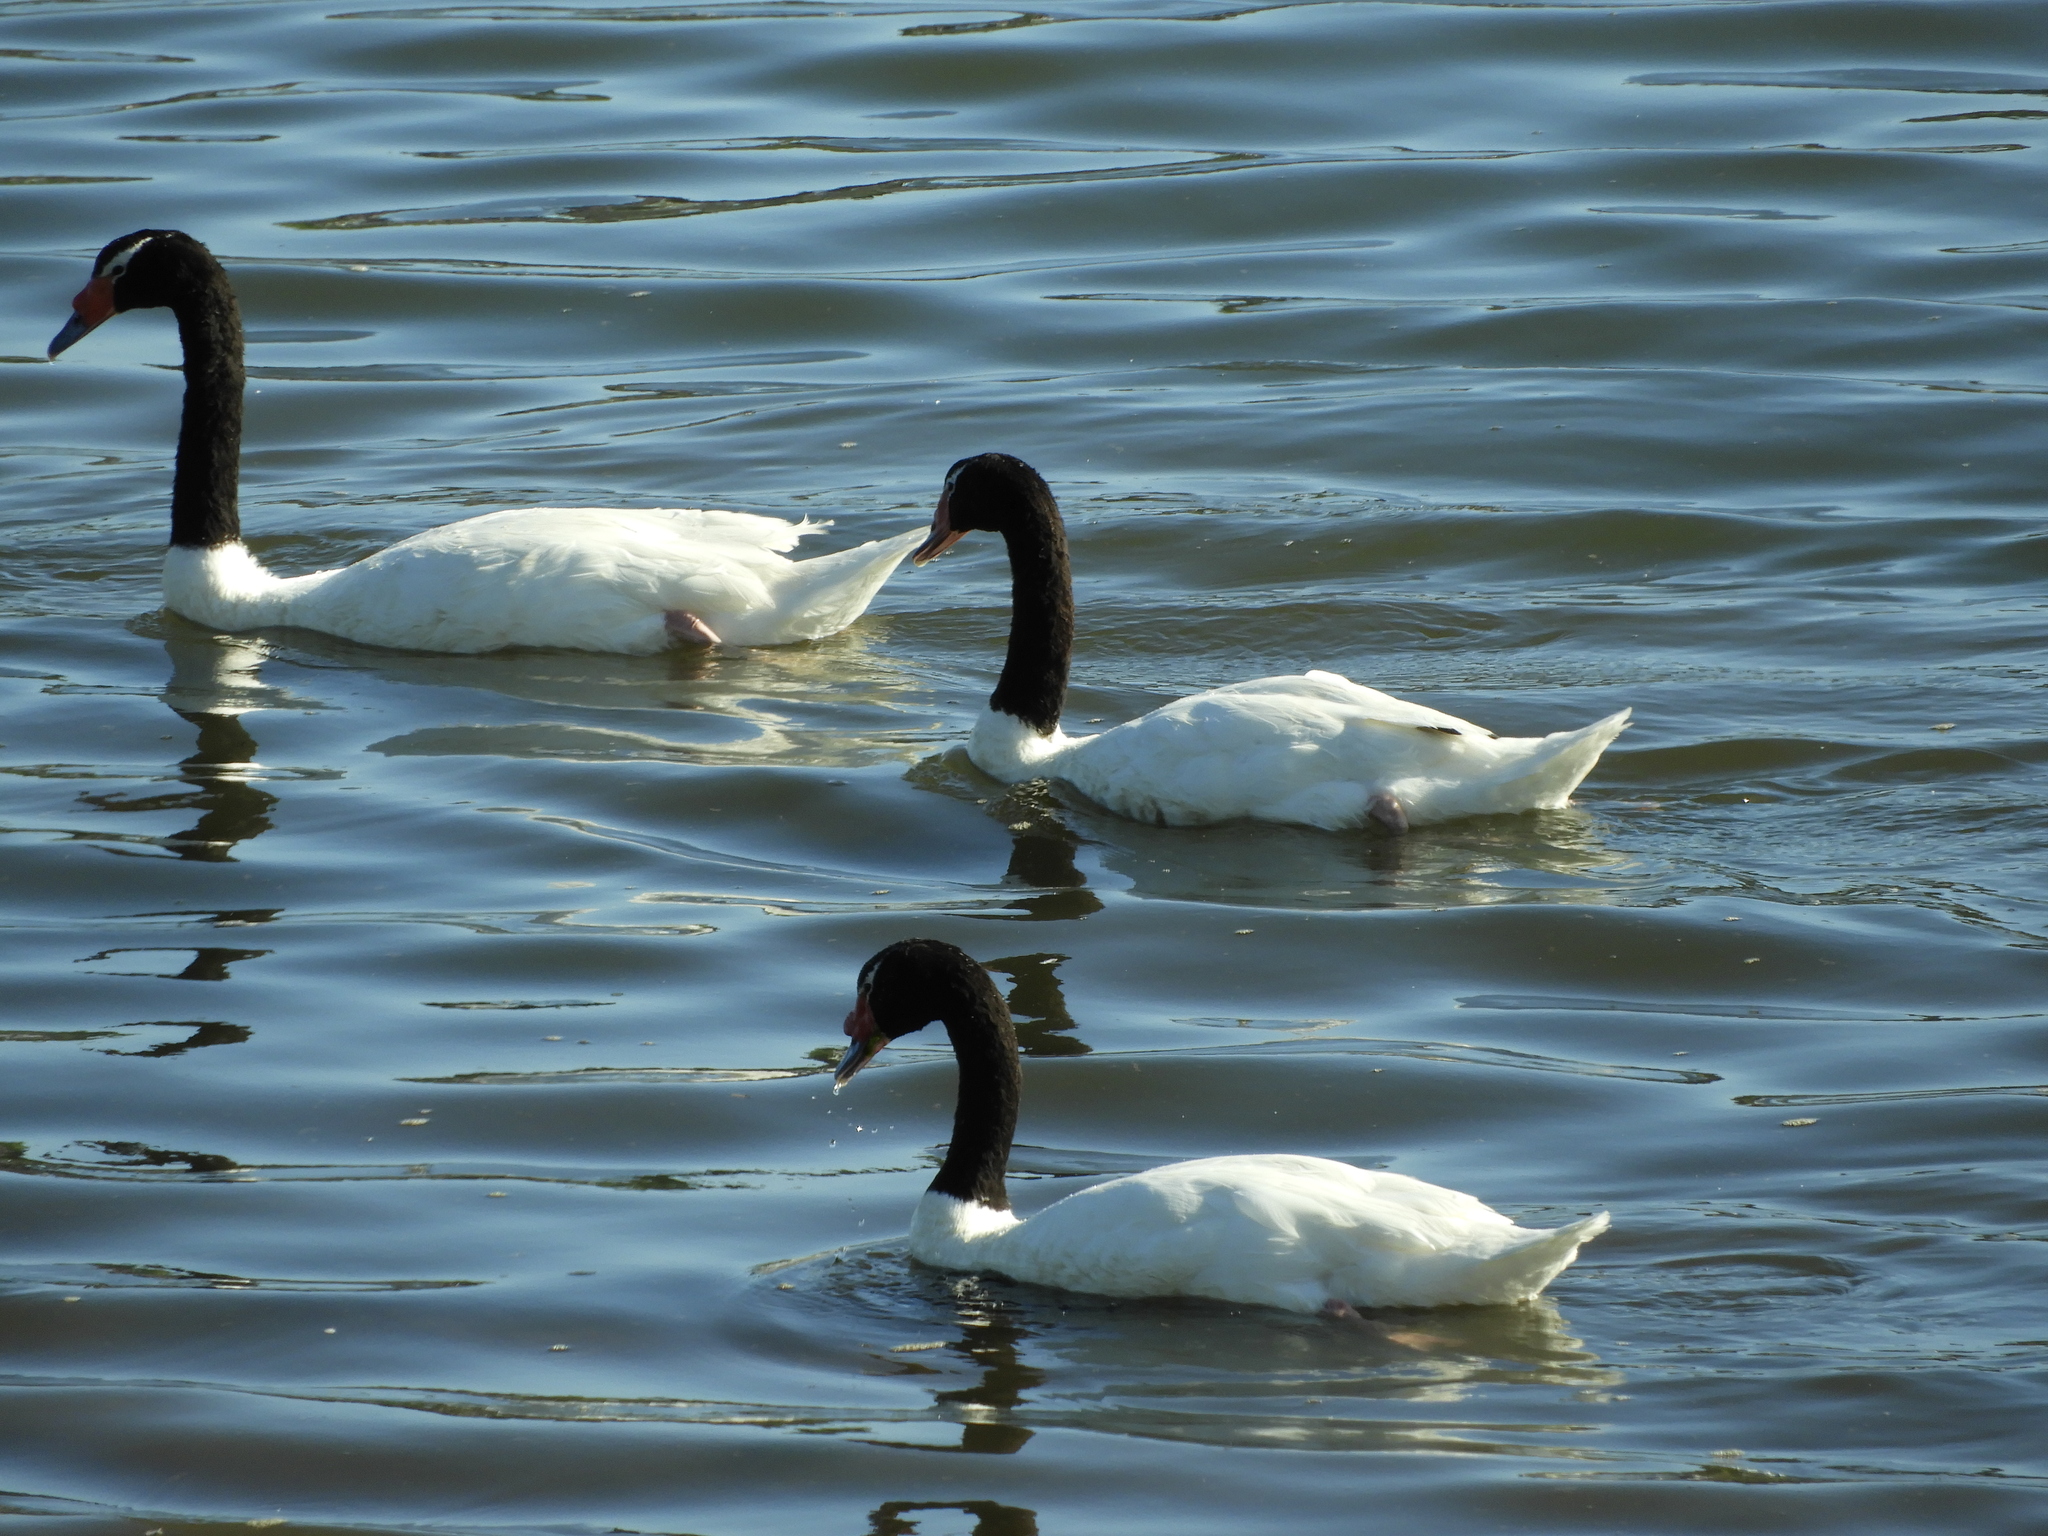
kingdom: Animalia
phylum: Chordata
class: Aves
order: Anseriformes
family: Anatidae
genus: Cygnus
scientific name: Cygnus melancoryphus
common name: Black-necked swan
